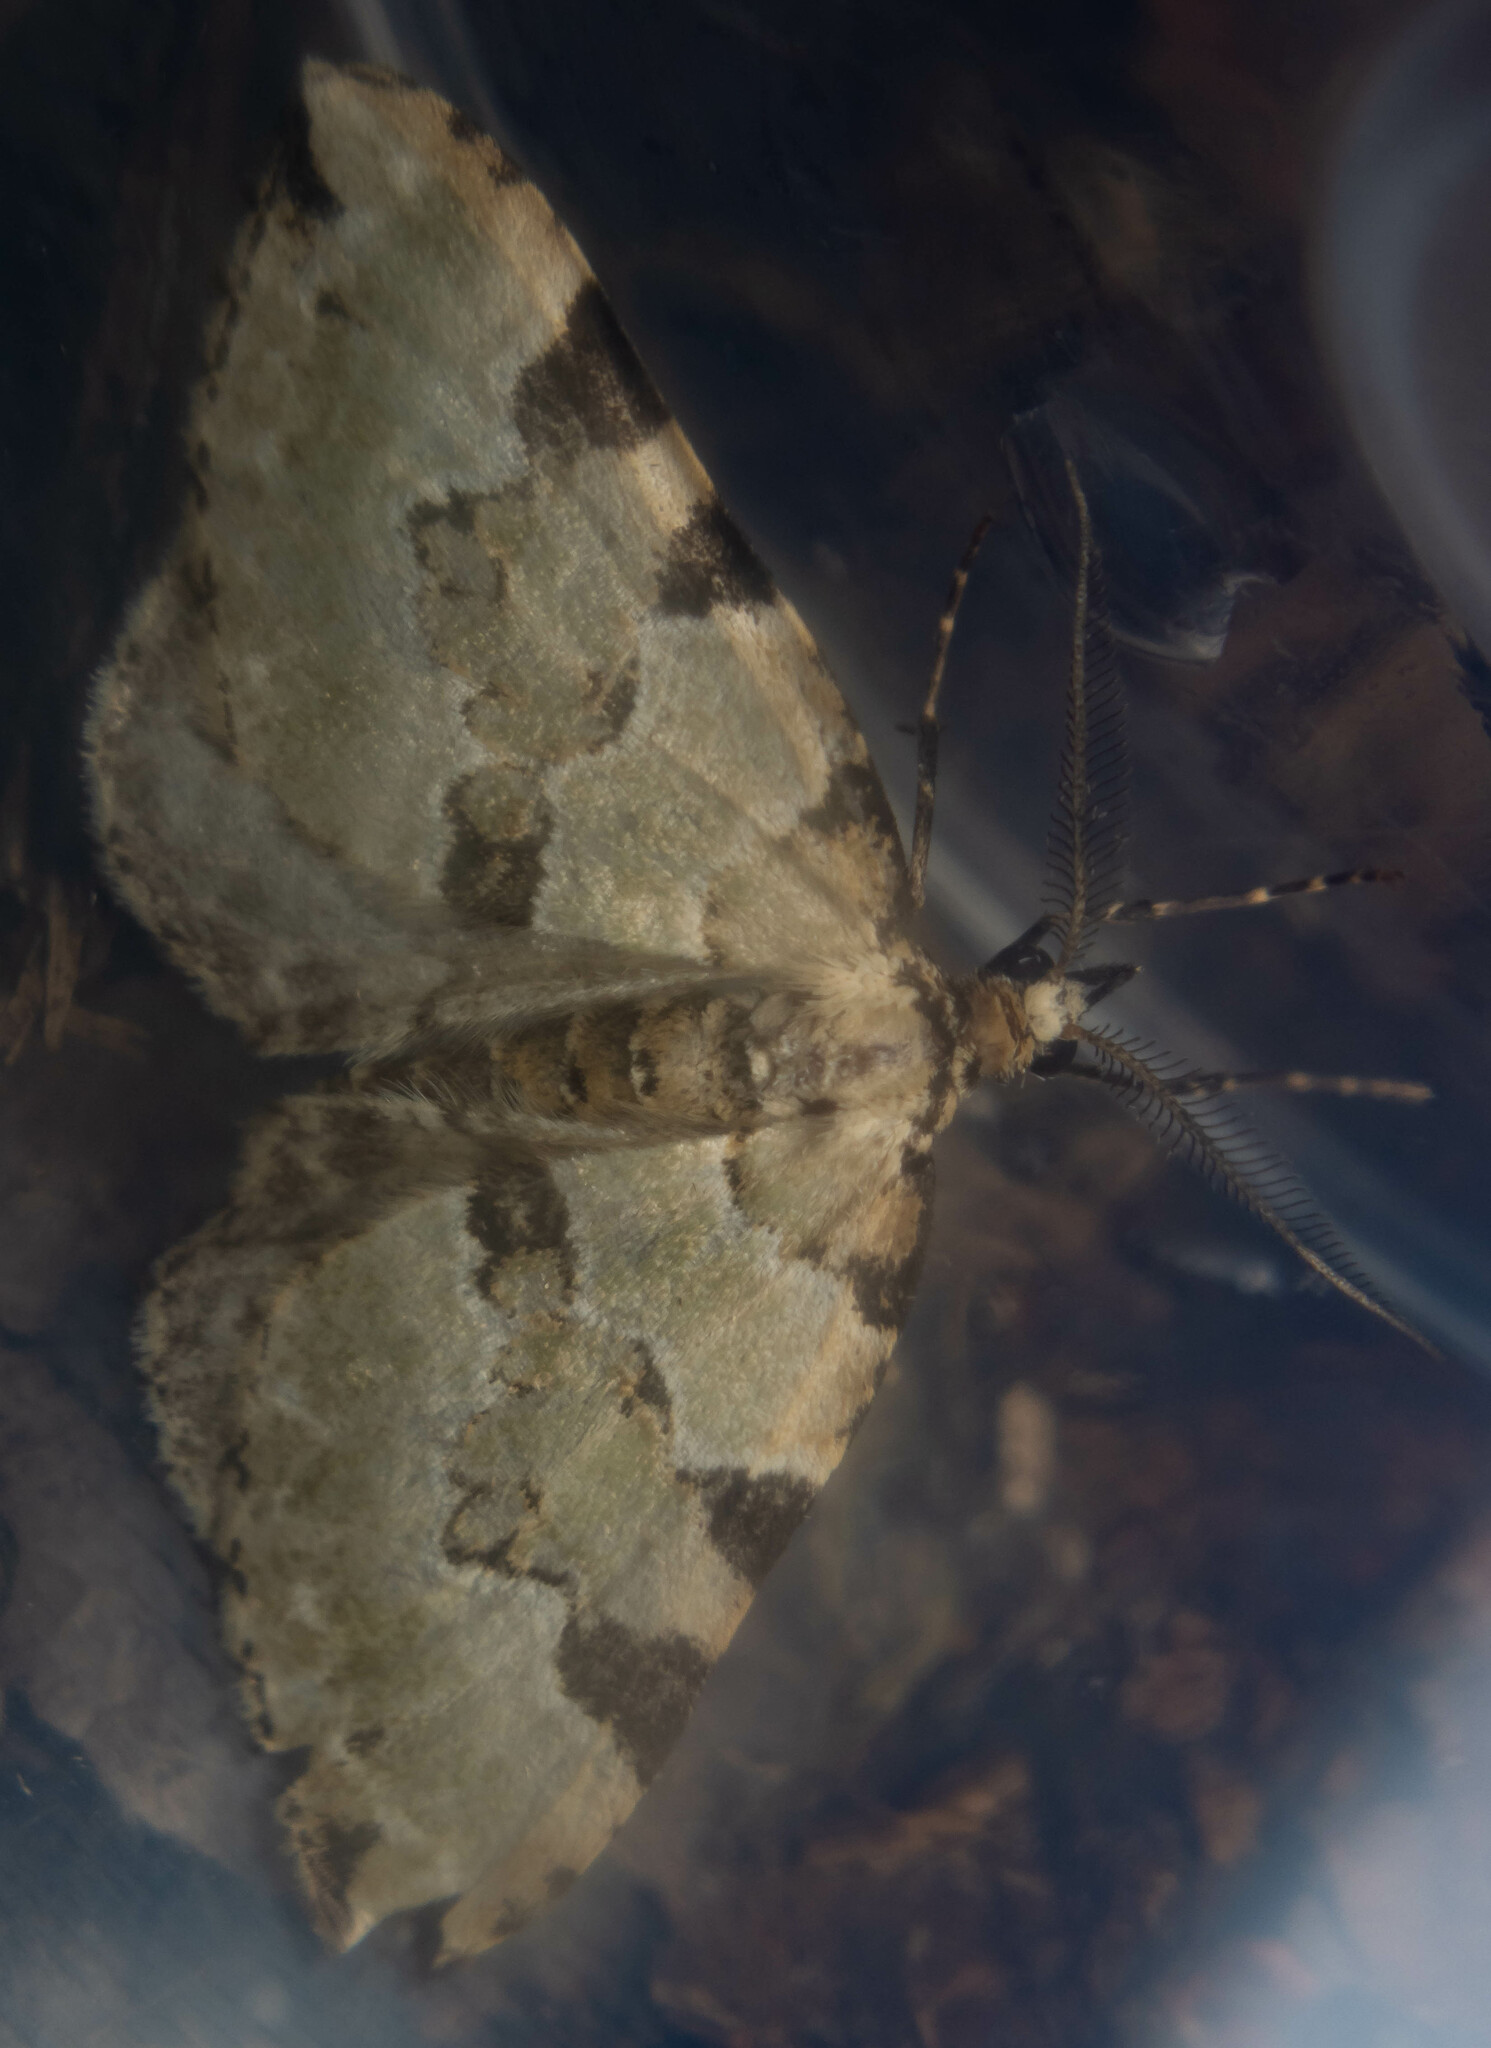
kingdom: Animalia
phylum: Arthropoda
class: Insecta
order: Lepidoptera
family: Geometridae
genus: Colostygia
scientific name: Colostygia pectinataria
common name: Green carpet
